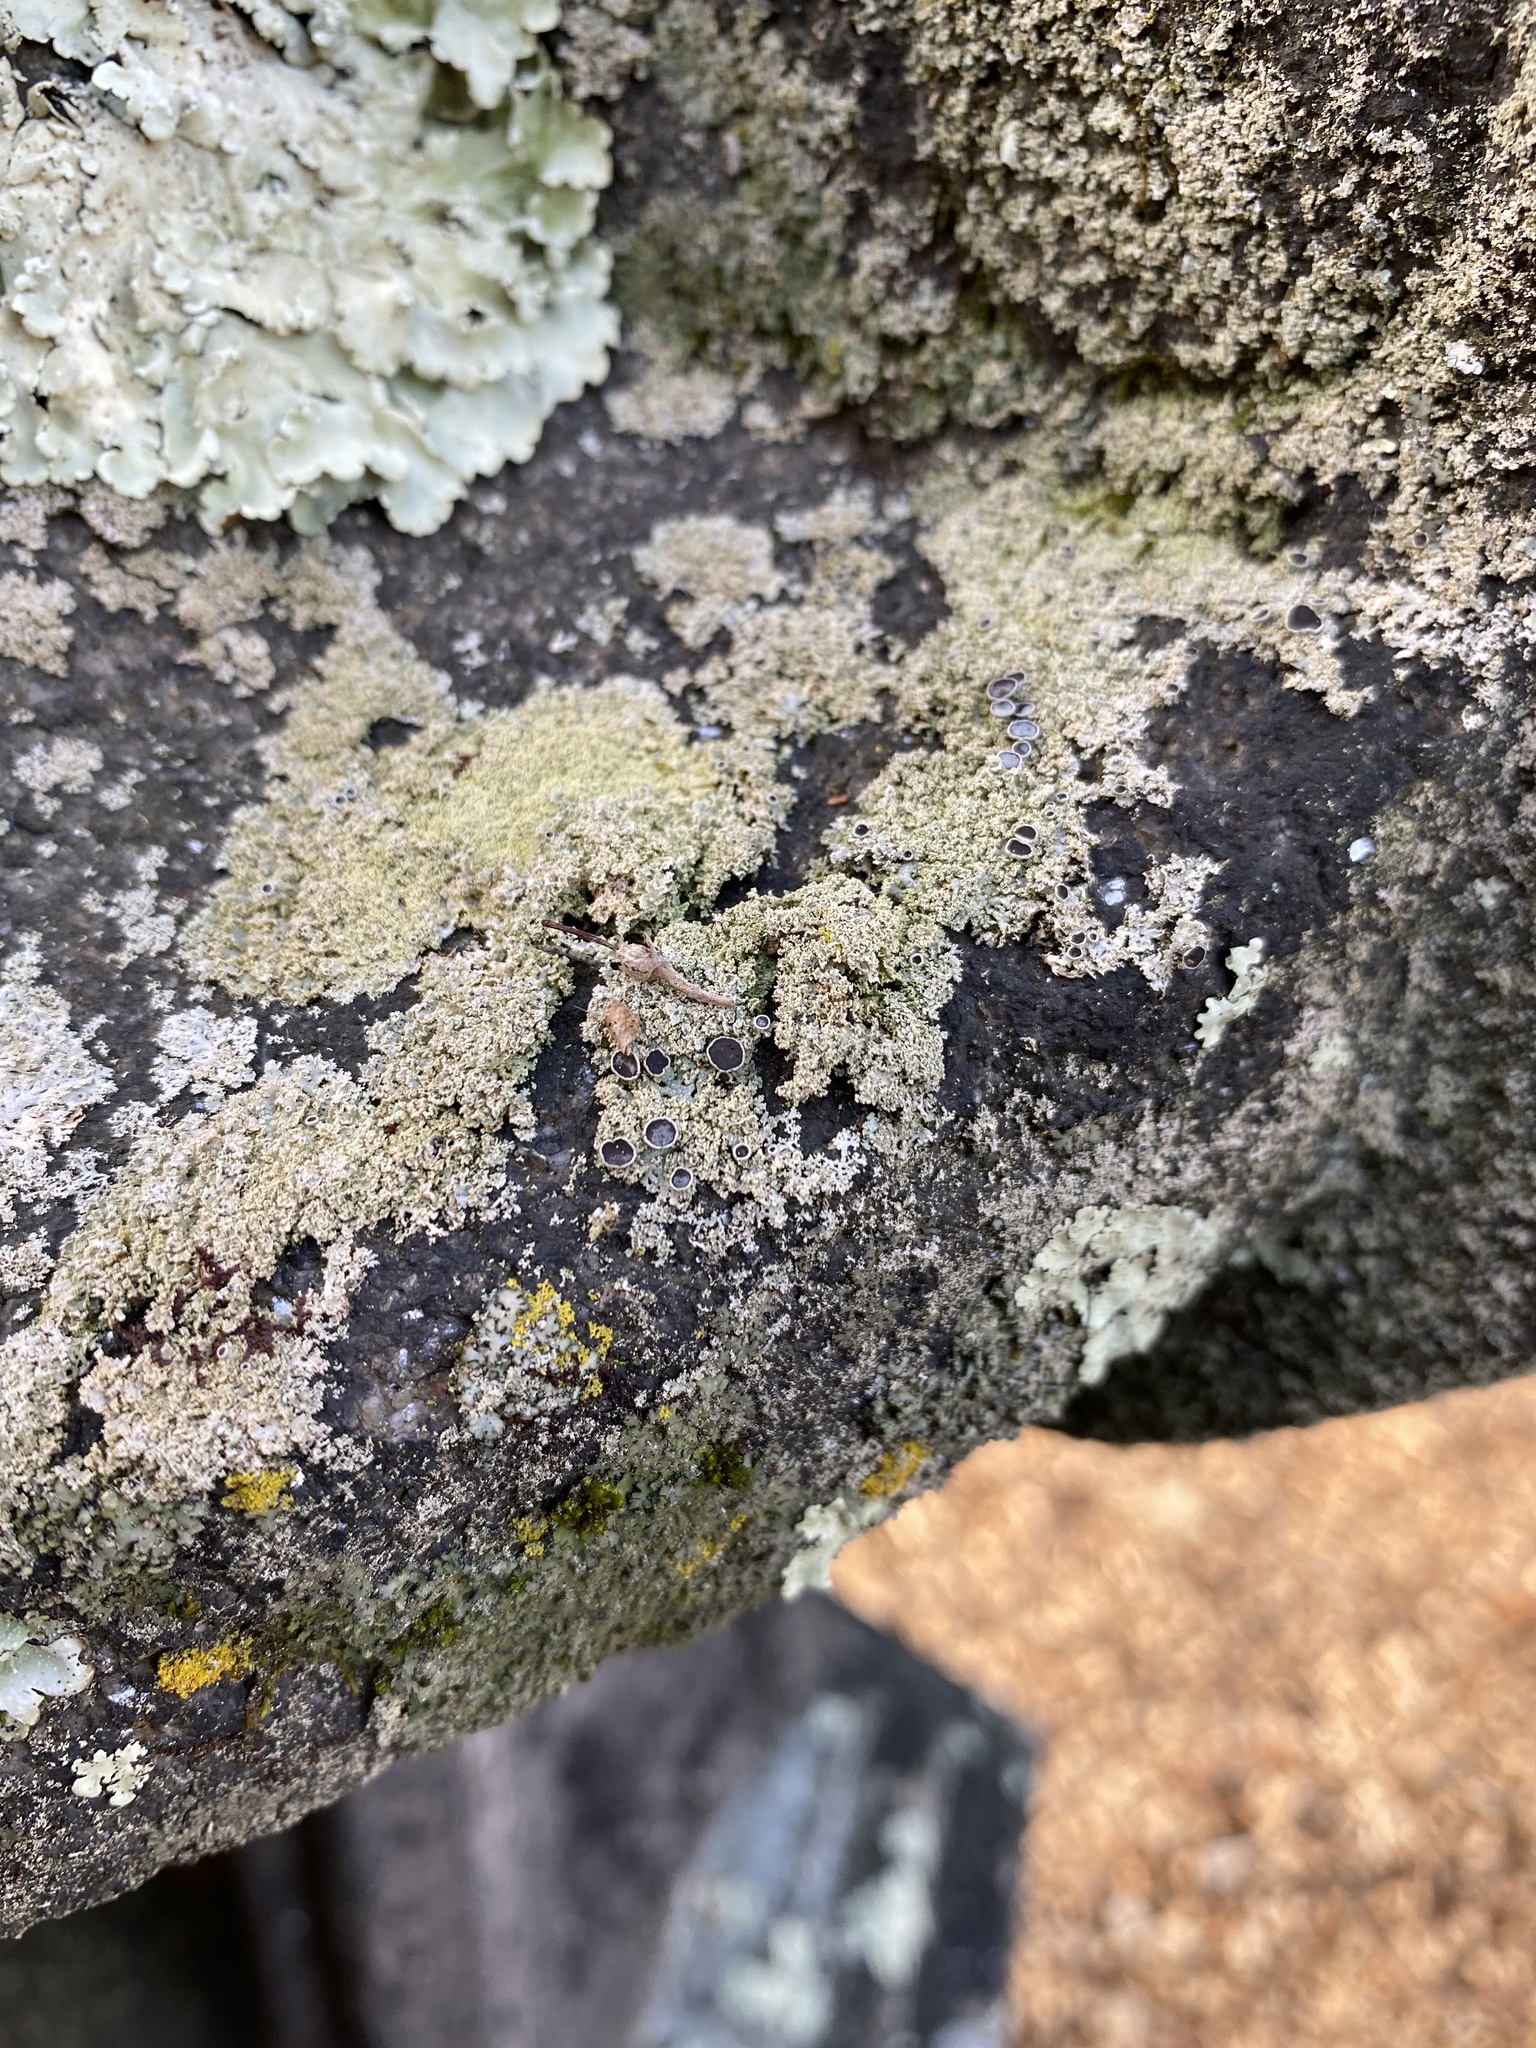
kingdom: Fungi
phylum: Ascomycota
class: Lecanoromycetes
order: Caliciales
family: Physciaceae
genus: Physcia
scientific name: Physcia millegrana
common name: Rosette lichen
